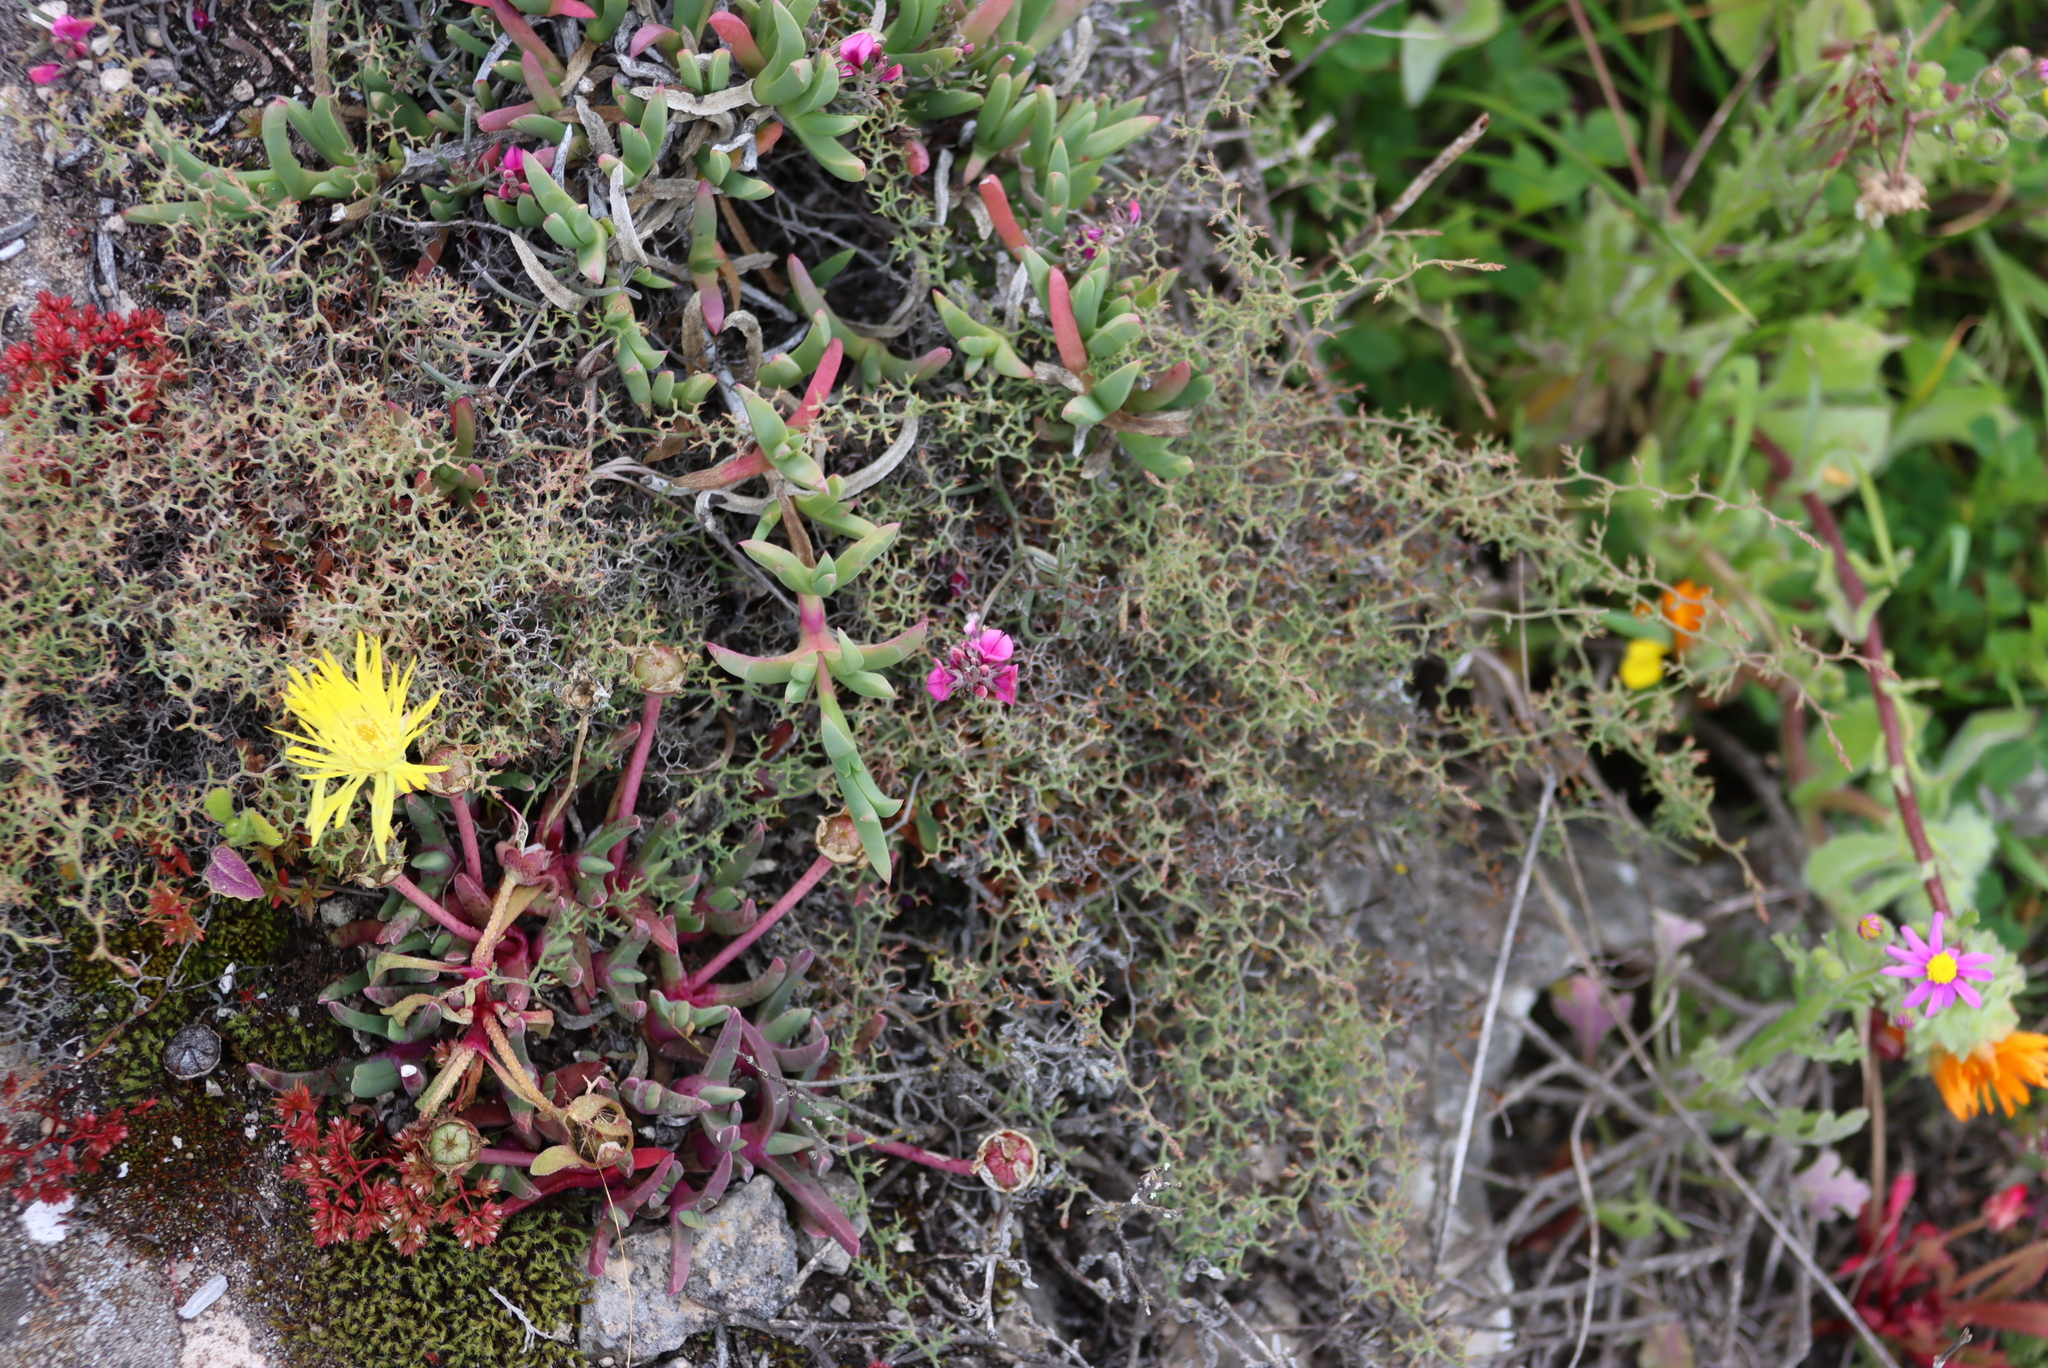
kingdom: Plantae
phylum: Tracheophyta
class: Magnoliopsida
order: Caryophyllales
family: Aizoaceae
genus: Cheiridopsis
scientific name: Cheiridopsis rostrata
